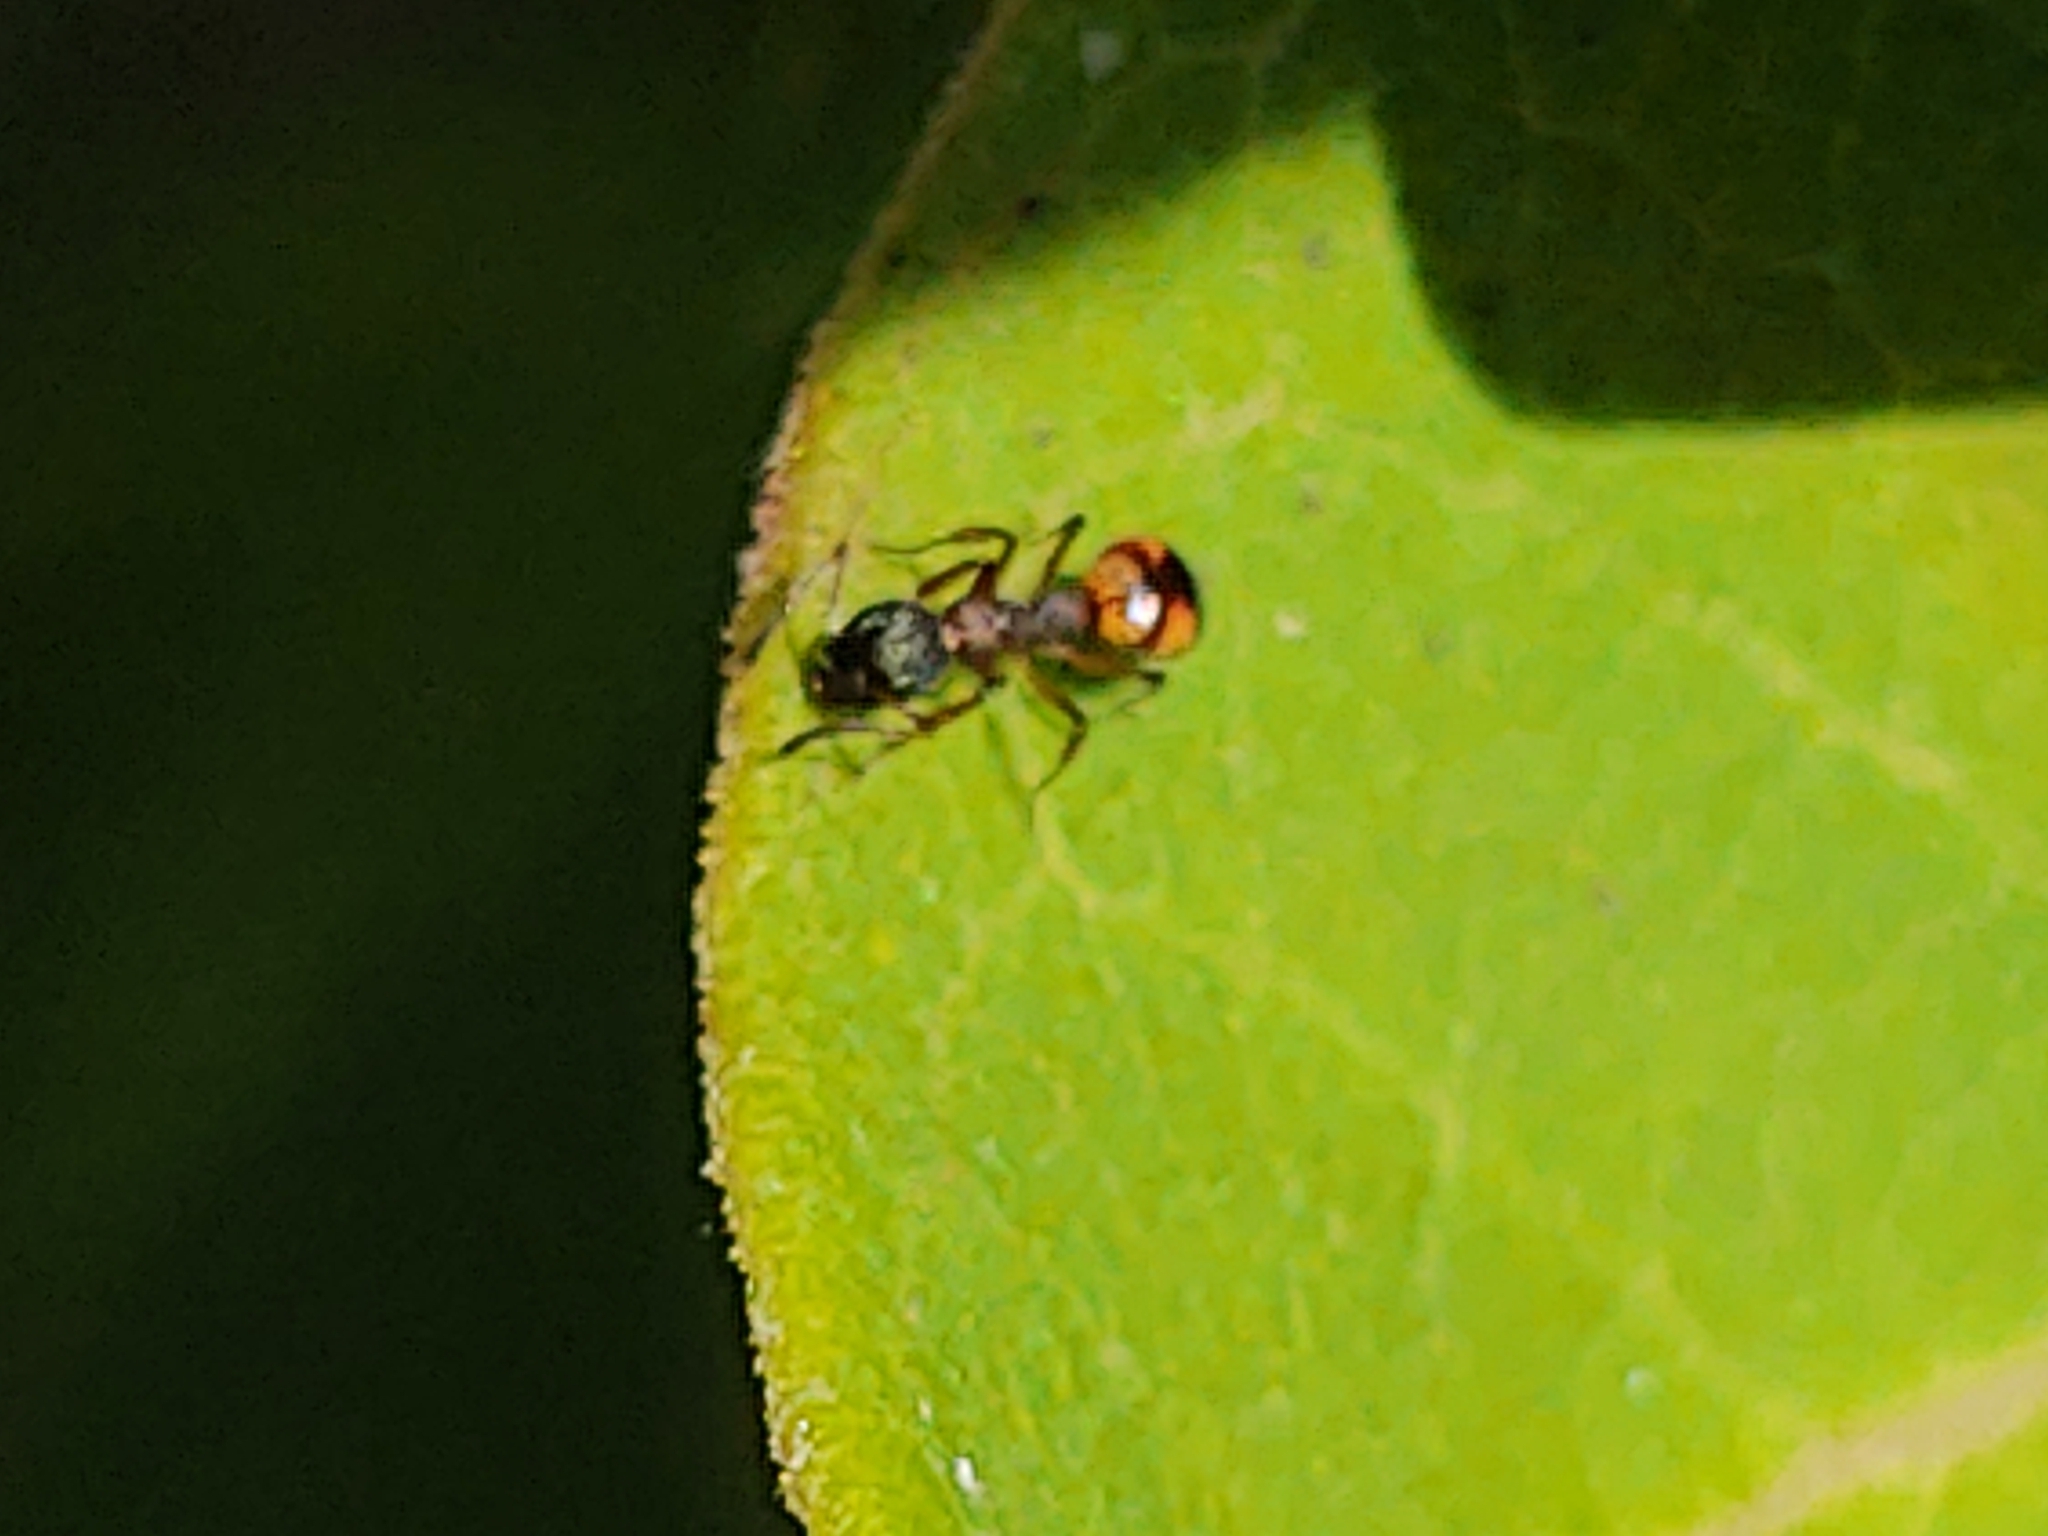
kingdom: Animalia
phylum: Arthropoda
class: Insecta
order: Hymenoptera
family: Formicidae
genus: Dolichoderus
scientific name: Dolichoderus plagiatus
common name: Mottled dolichoderus
